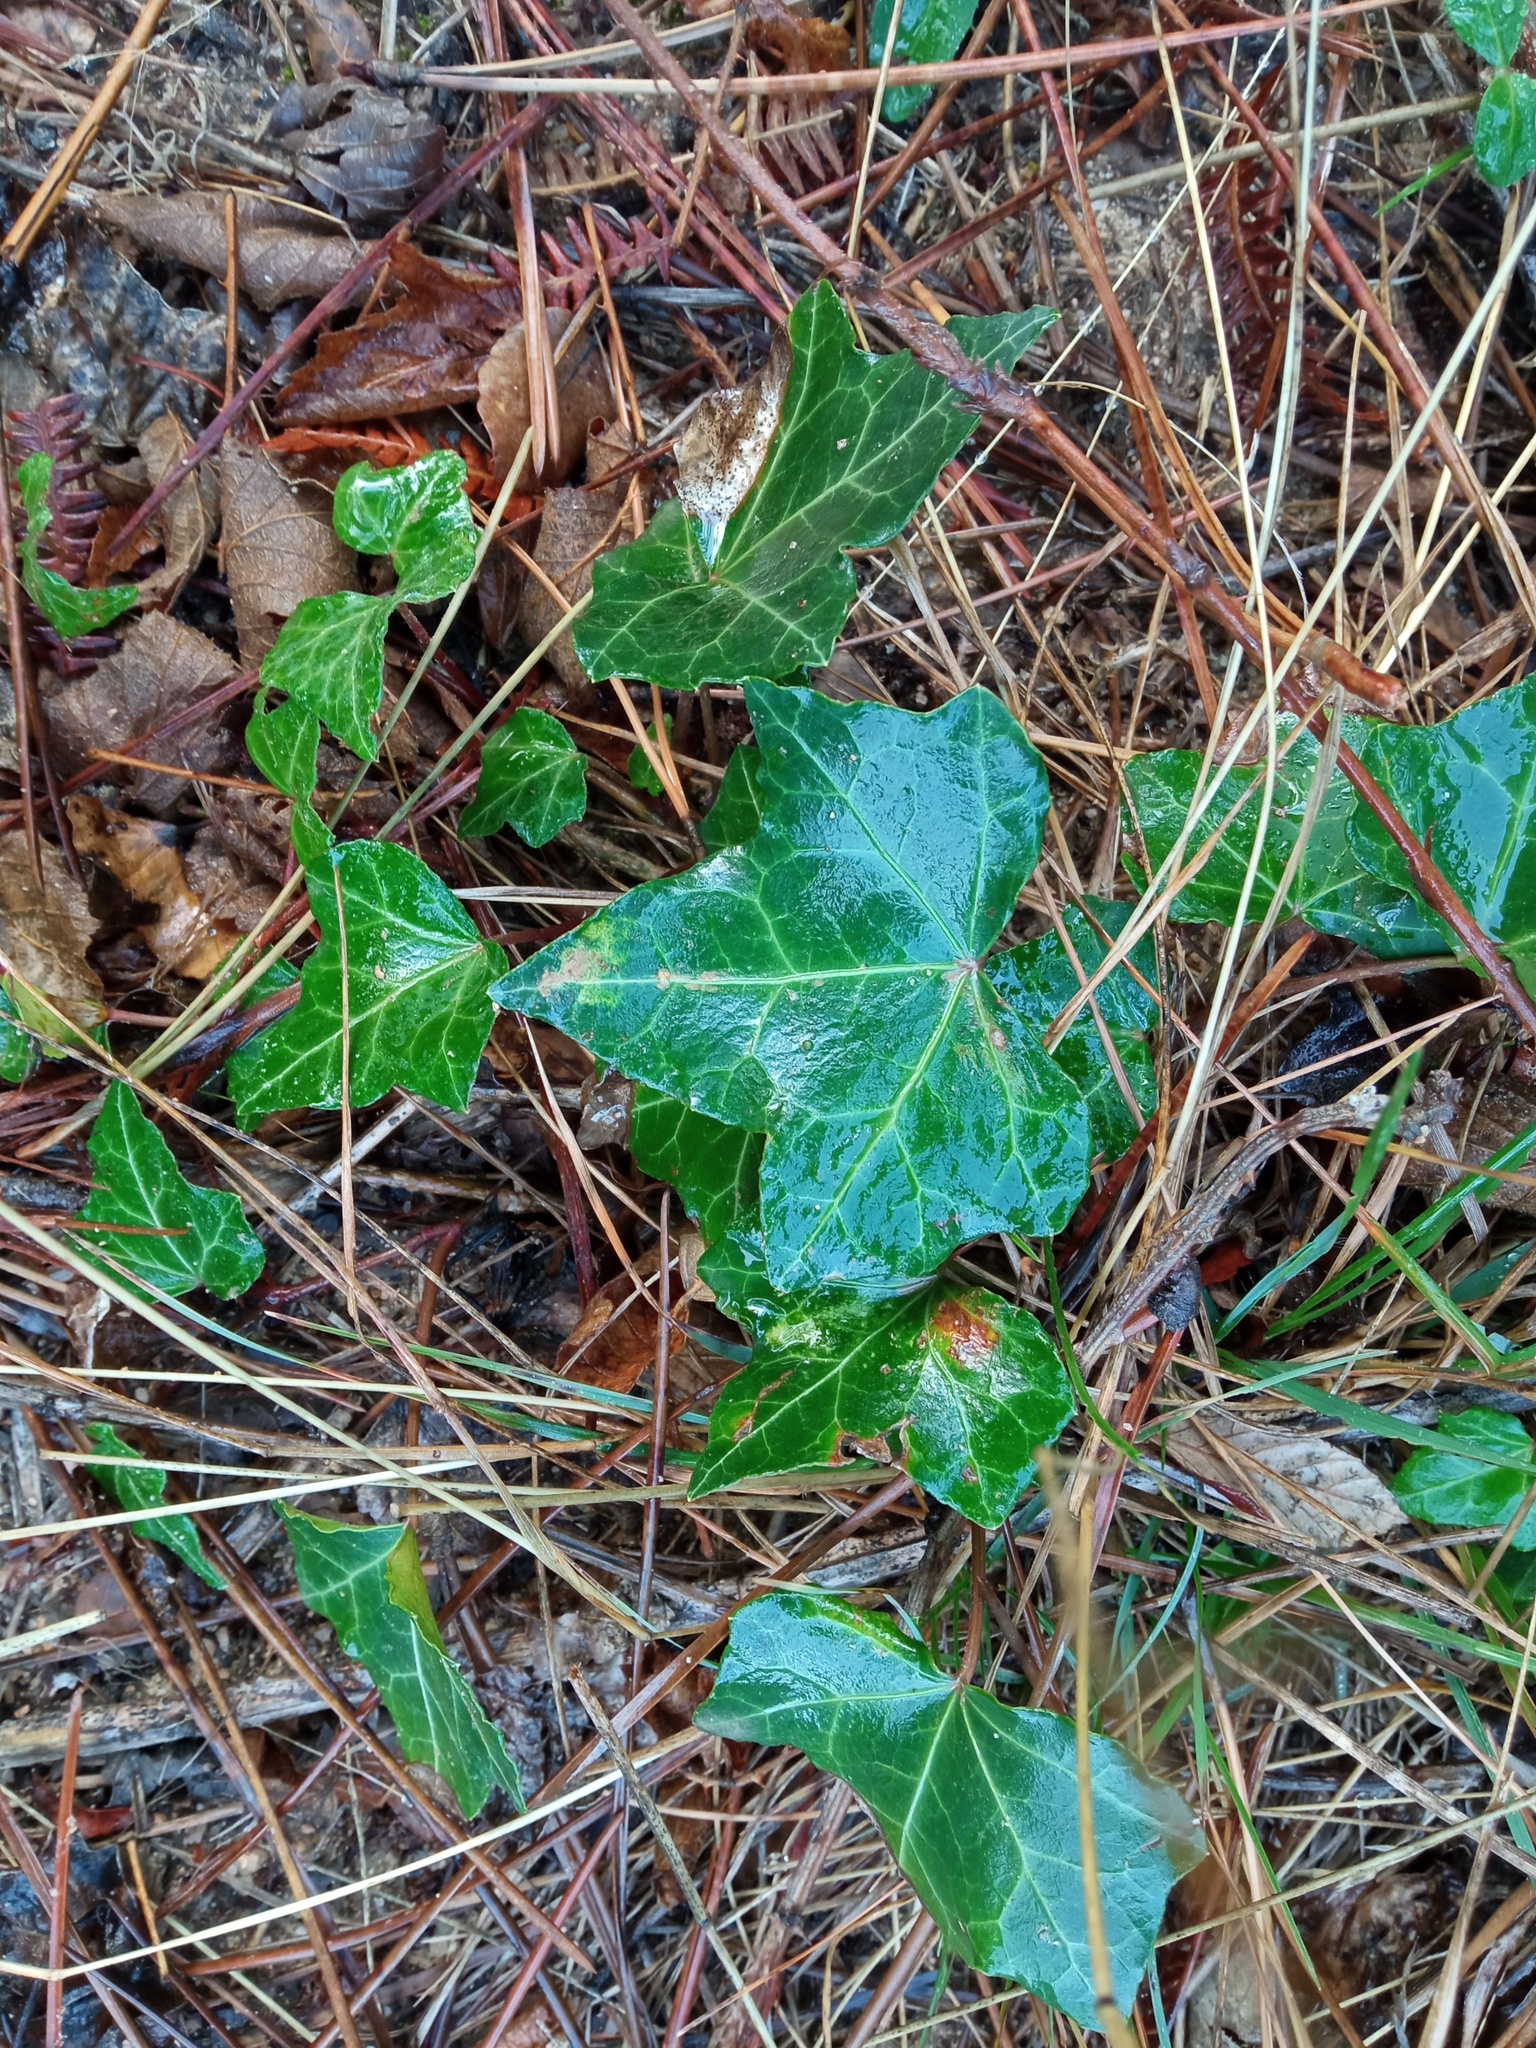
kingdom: Plantae
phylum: Tracheophyta
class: Magnoliopsida
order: Apiales
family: Araliaceae
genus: Hedera
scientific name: Hedera helix
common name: Ivy
